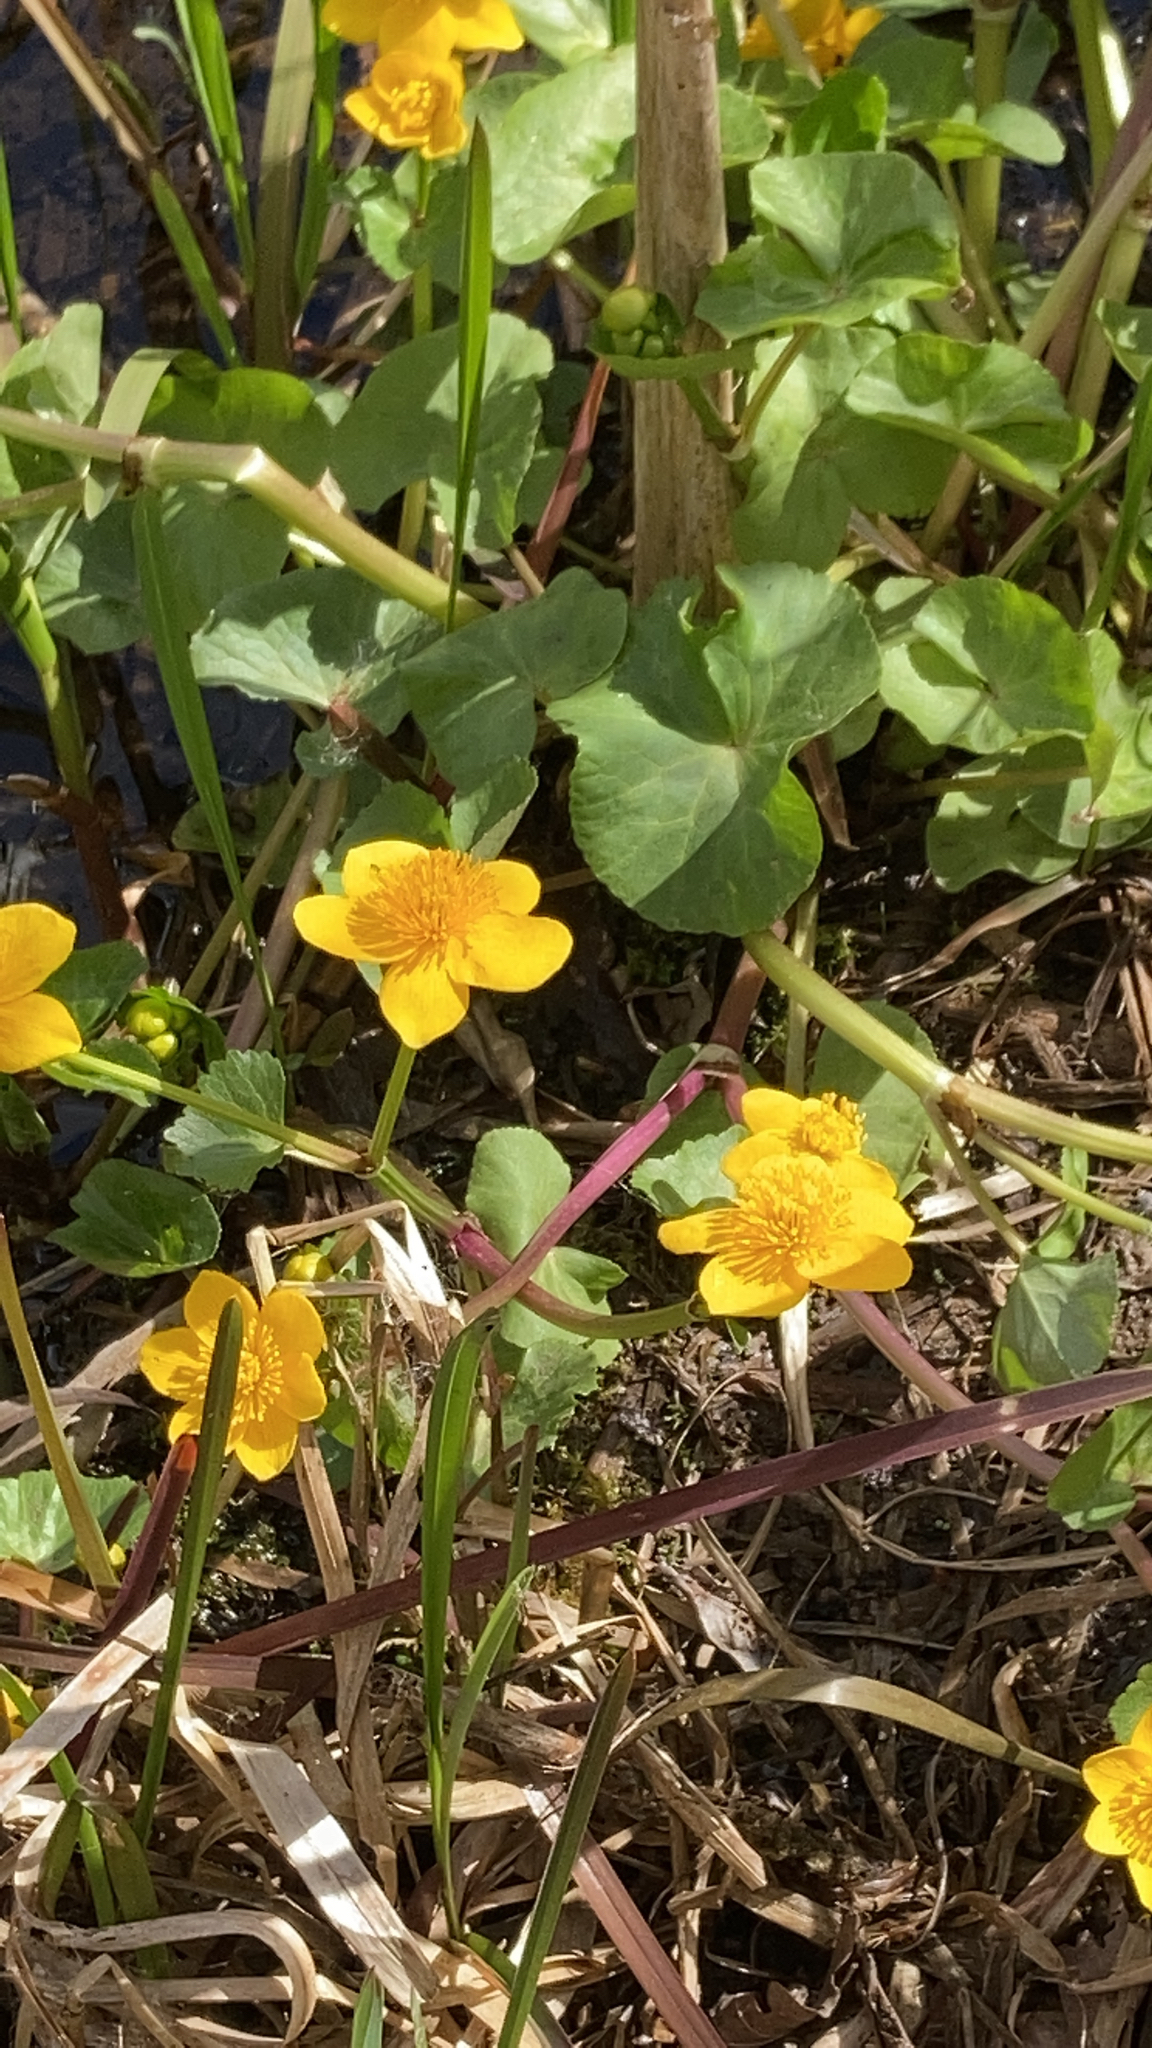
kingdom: Plantae
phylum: Tracheophyta
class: Magnoliopsida
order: Ranunculales
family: Ranunculaceae
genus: Caltha
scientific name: Caltha palustris
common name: Marsh marigold
